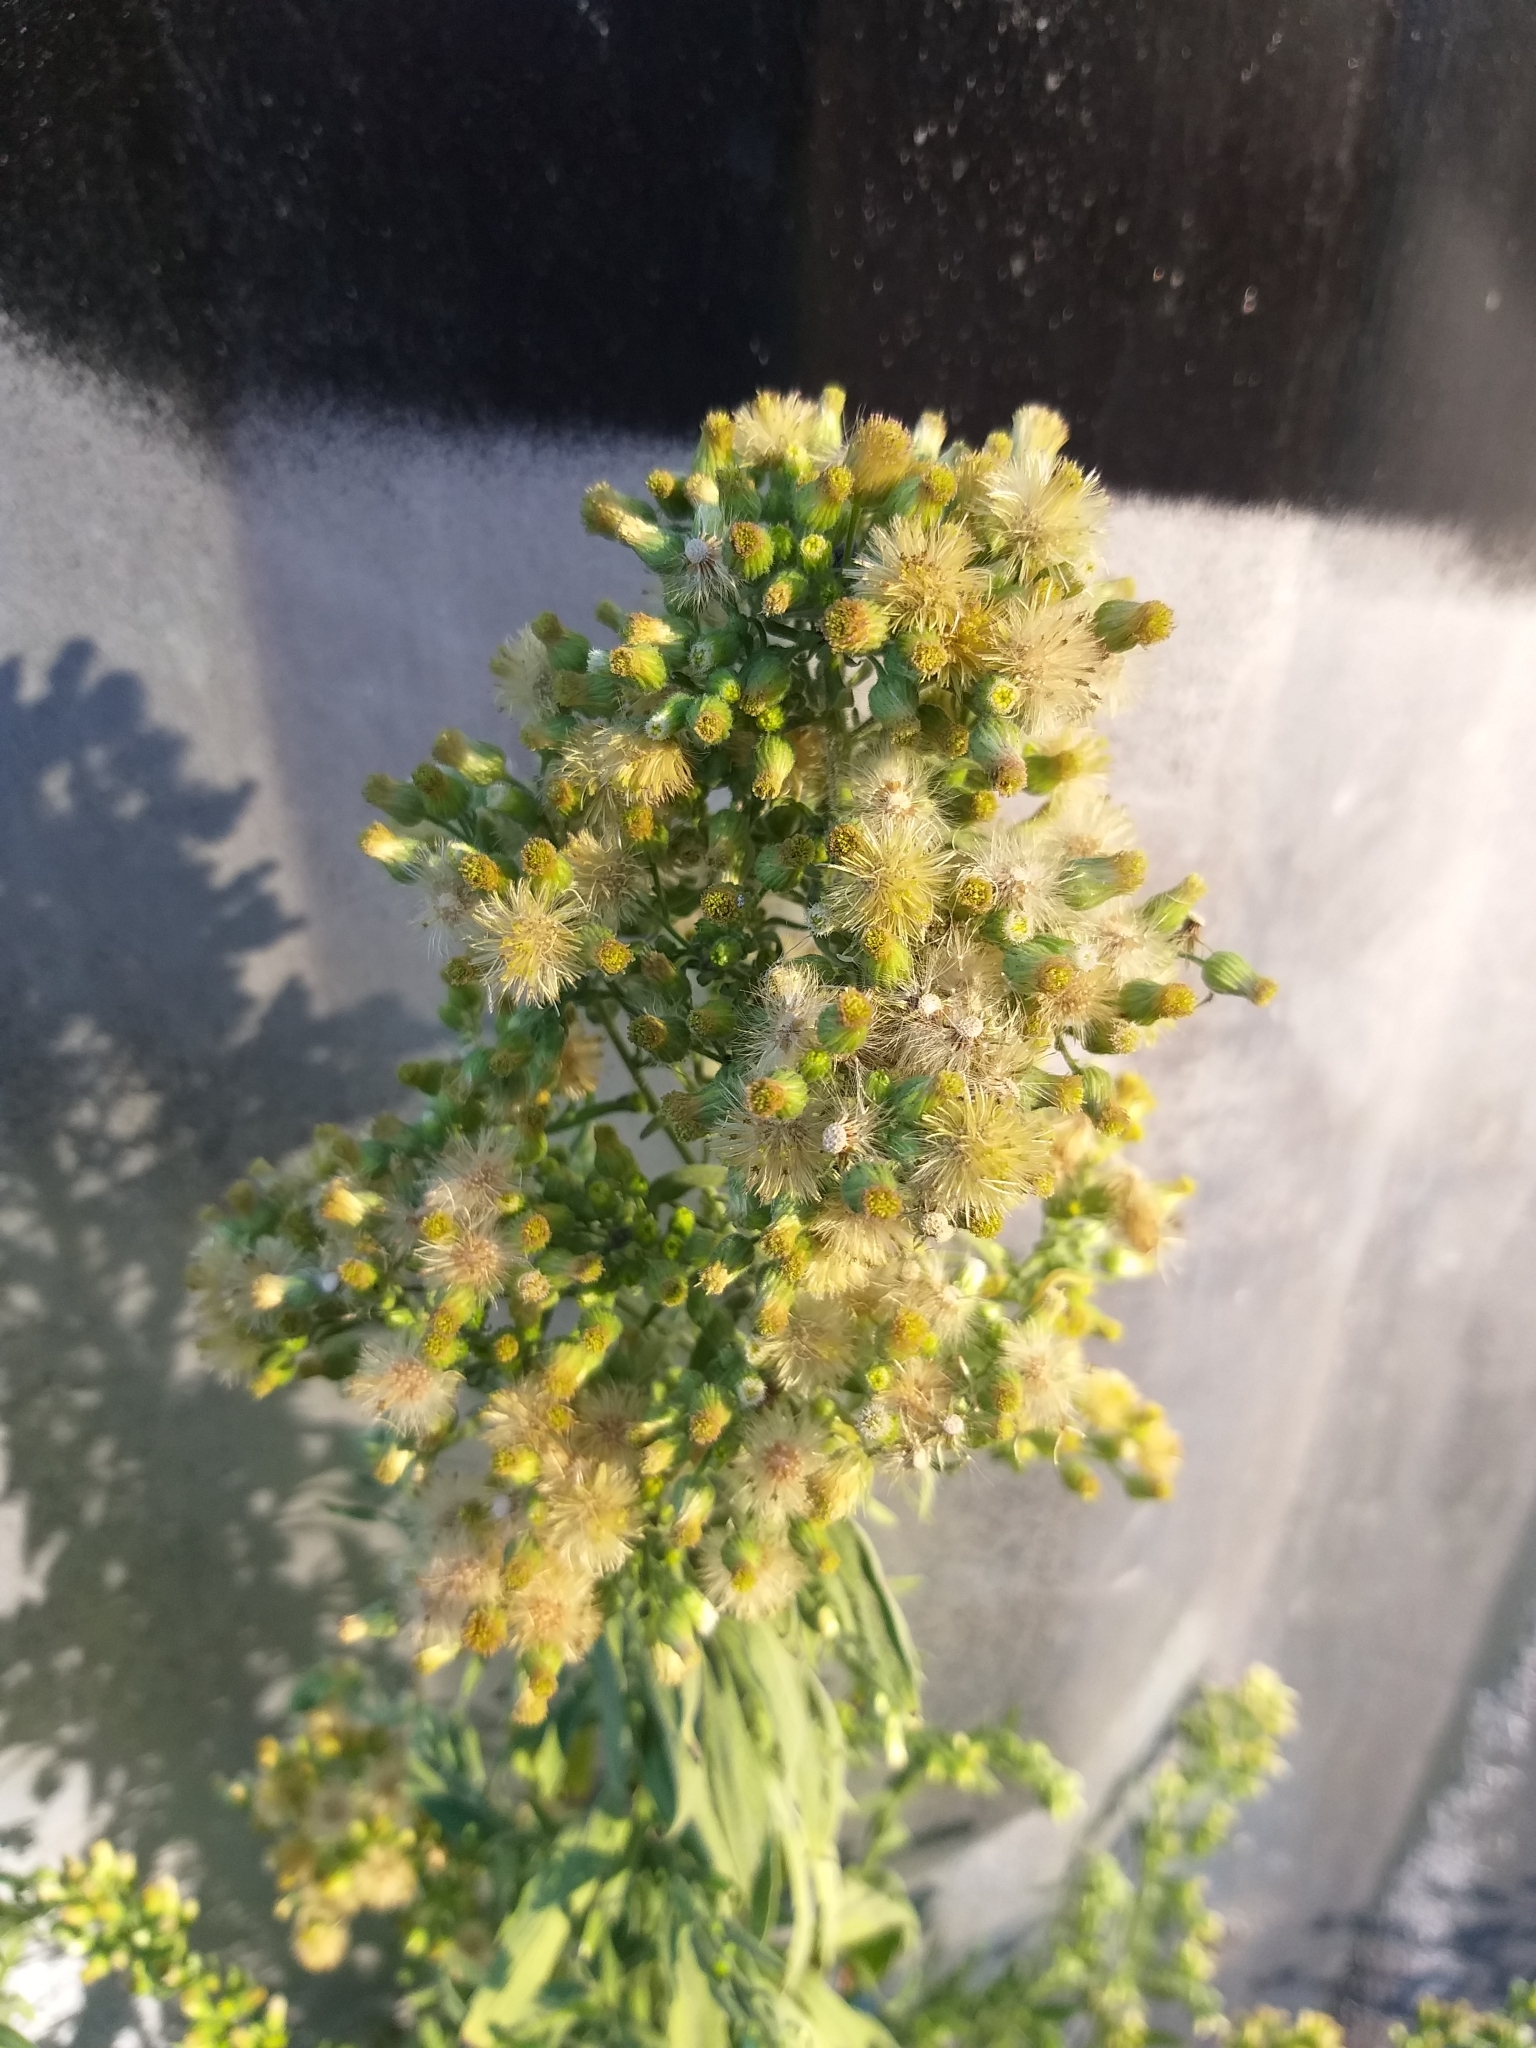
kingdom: Plantae
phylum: Tracheophyta
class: Magnoliopsida
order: Asterales
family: Asteraceae
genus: Erigeron
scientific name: Erigeron sumatrensis
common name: Daisy
